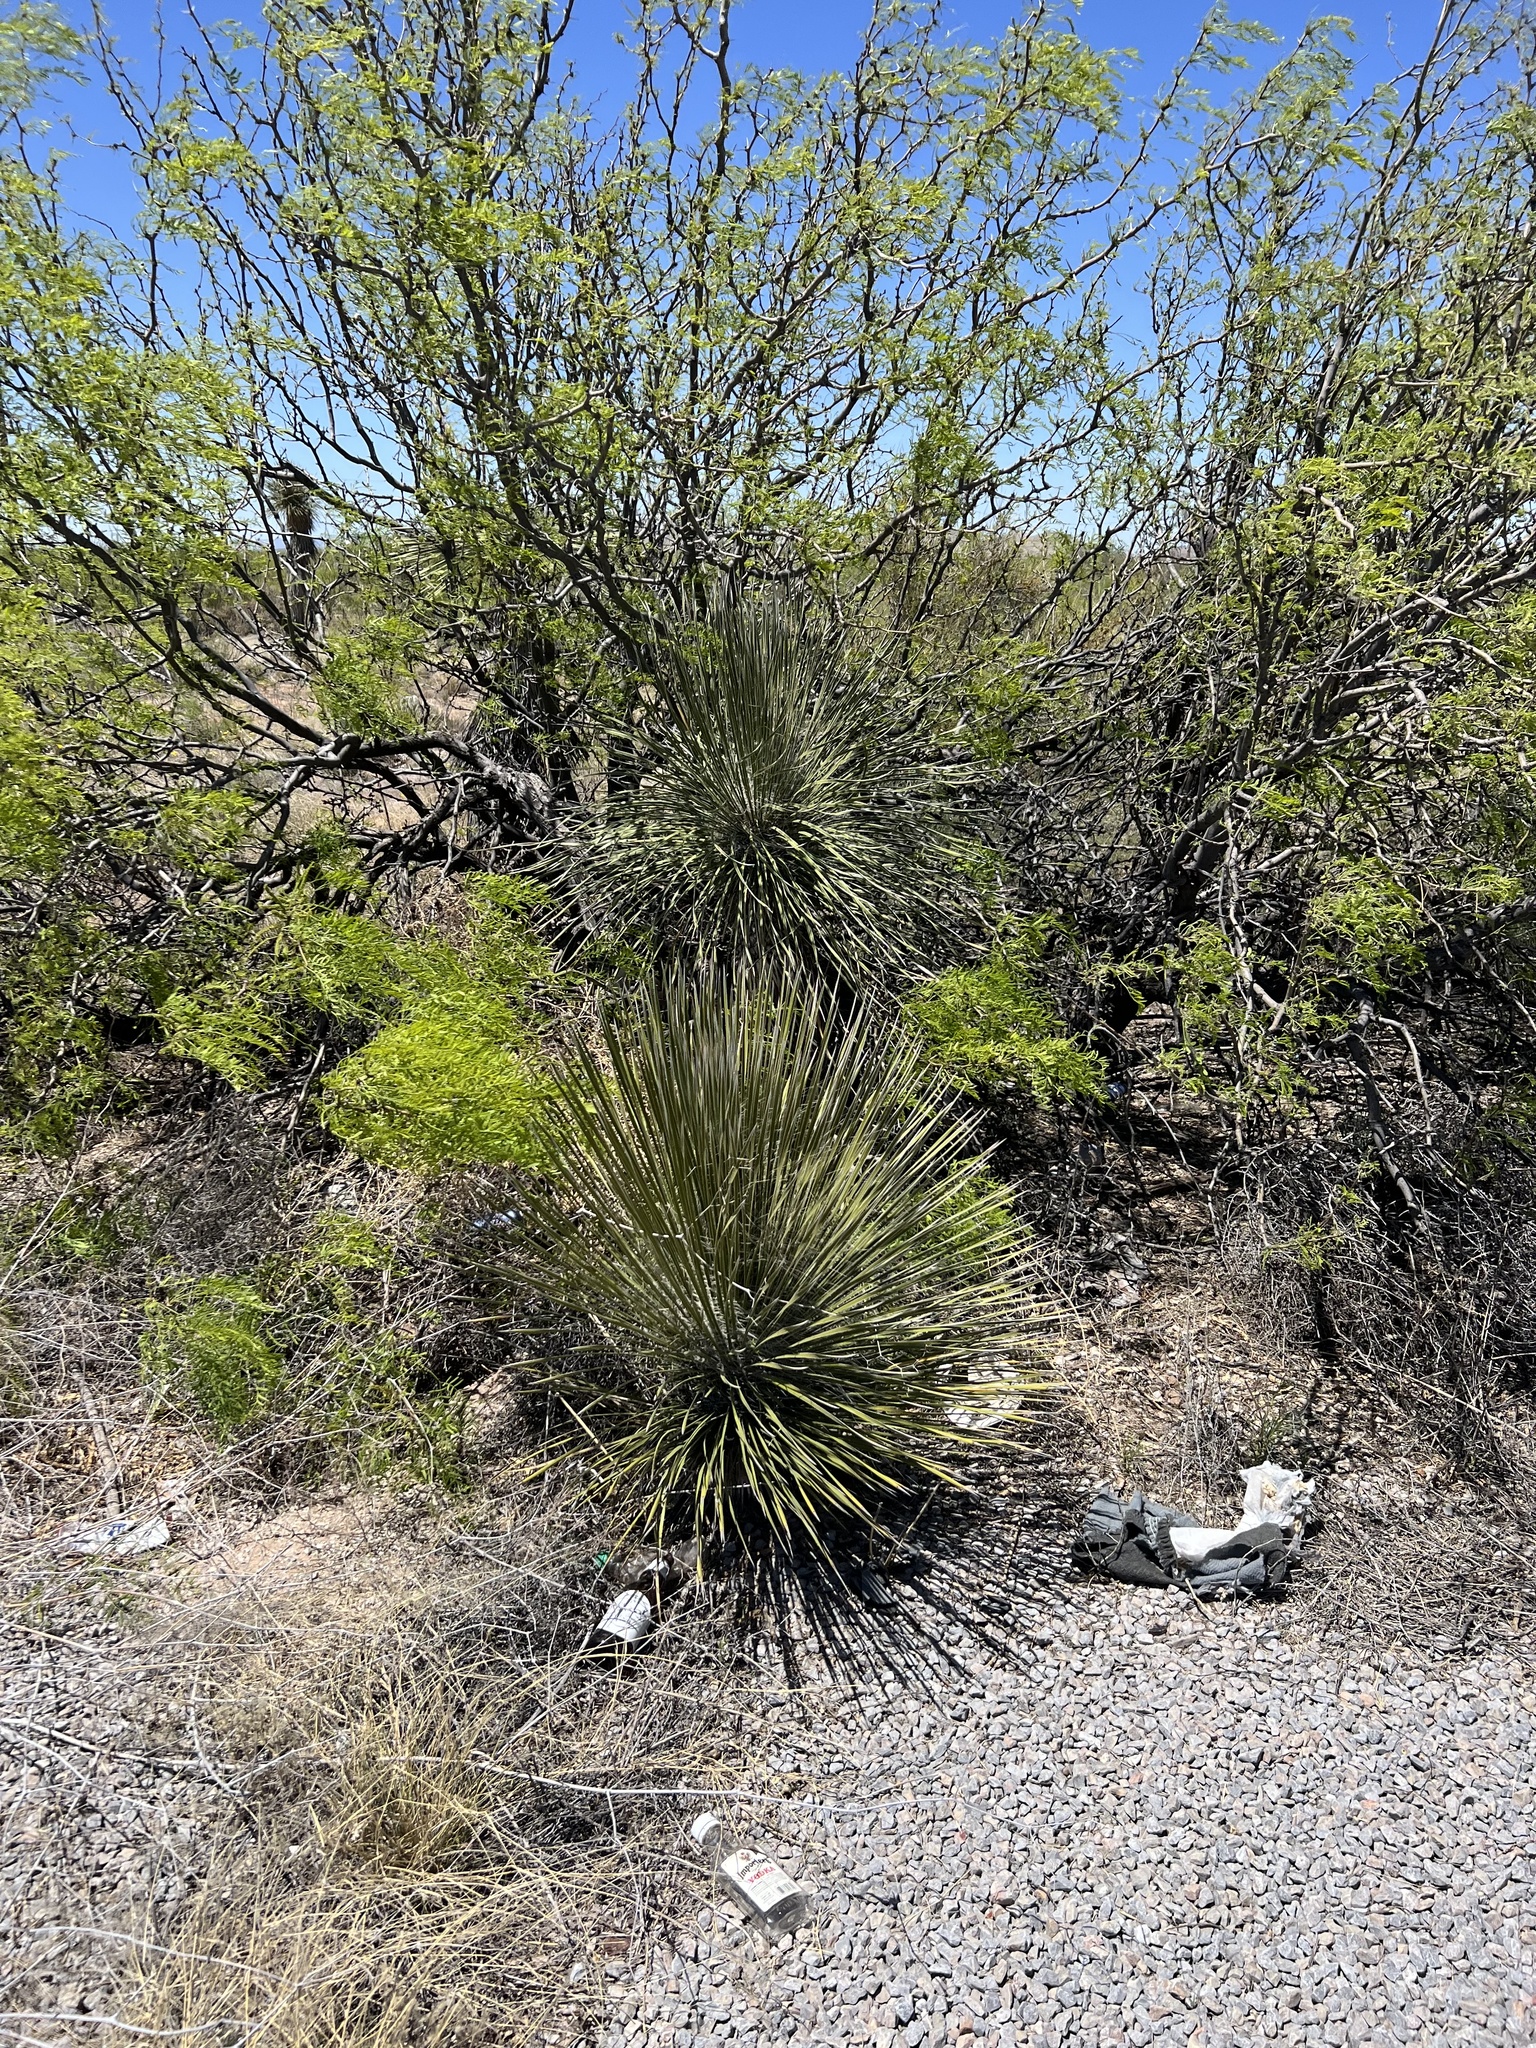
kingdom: Plantae
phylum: Tracheophyta
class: Liliopsida
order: Asparagales
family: Asparagaceae
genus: Yucca
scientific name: Yucca elata
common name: Palmella
